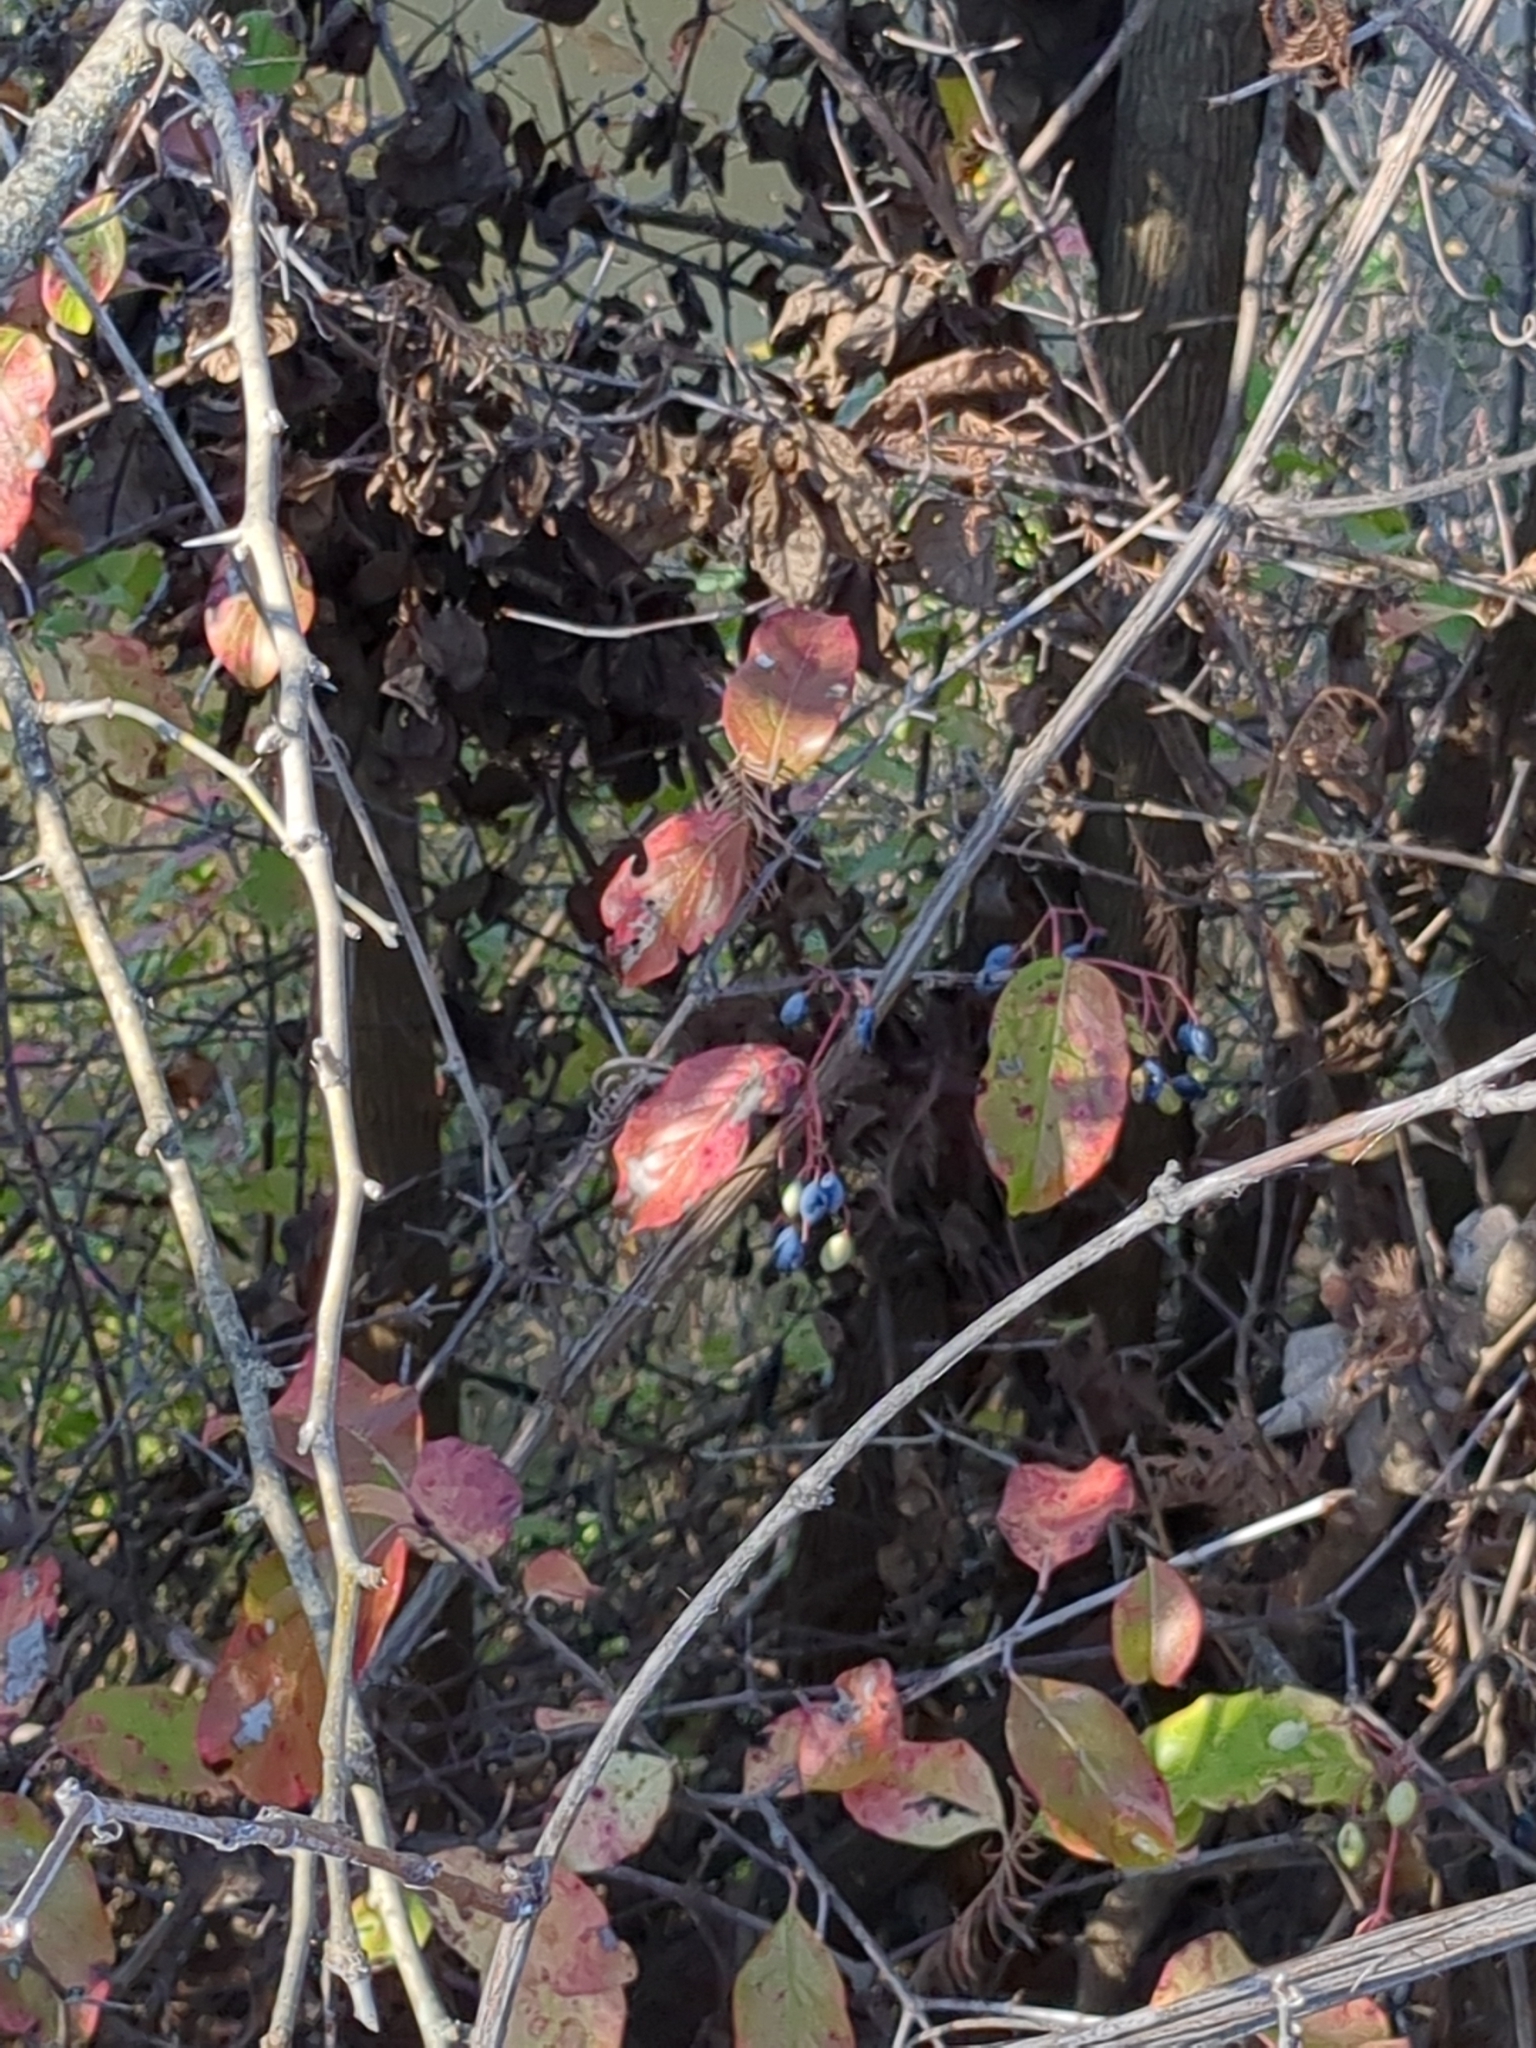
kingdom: Plantae
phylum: Tracheophyta
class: Magnoliopsida
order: Dipsacales
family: Viburnaceae
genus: Viburnum
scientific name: Viburnum rufidulum
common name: Blue haw
